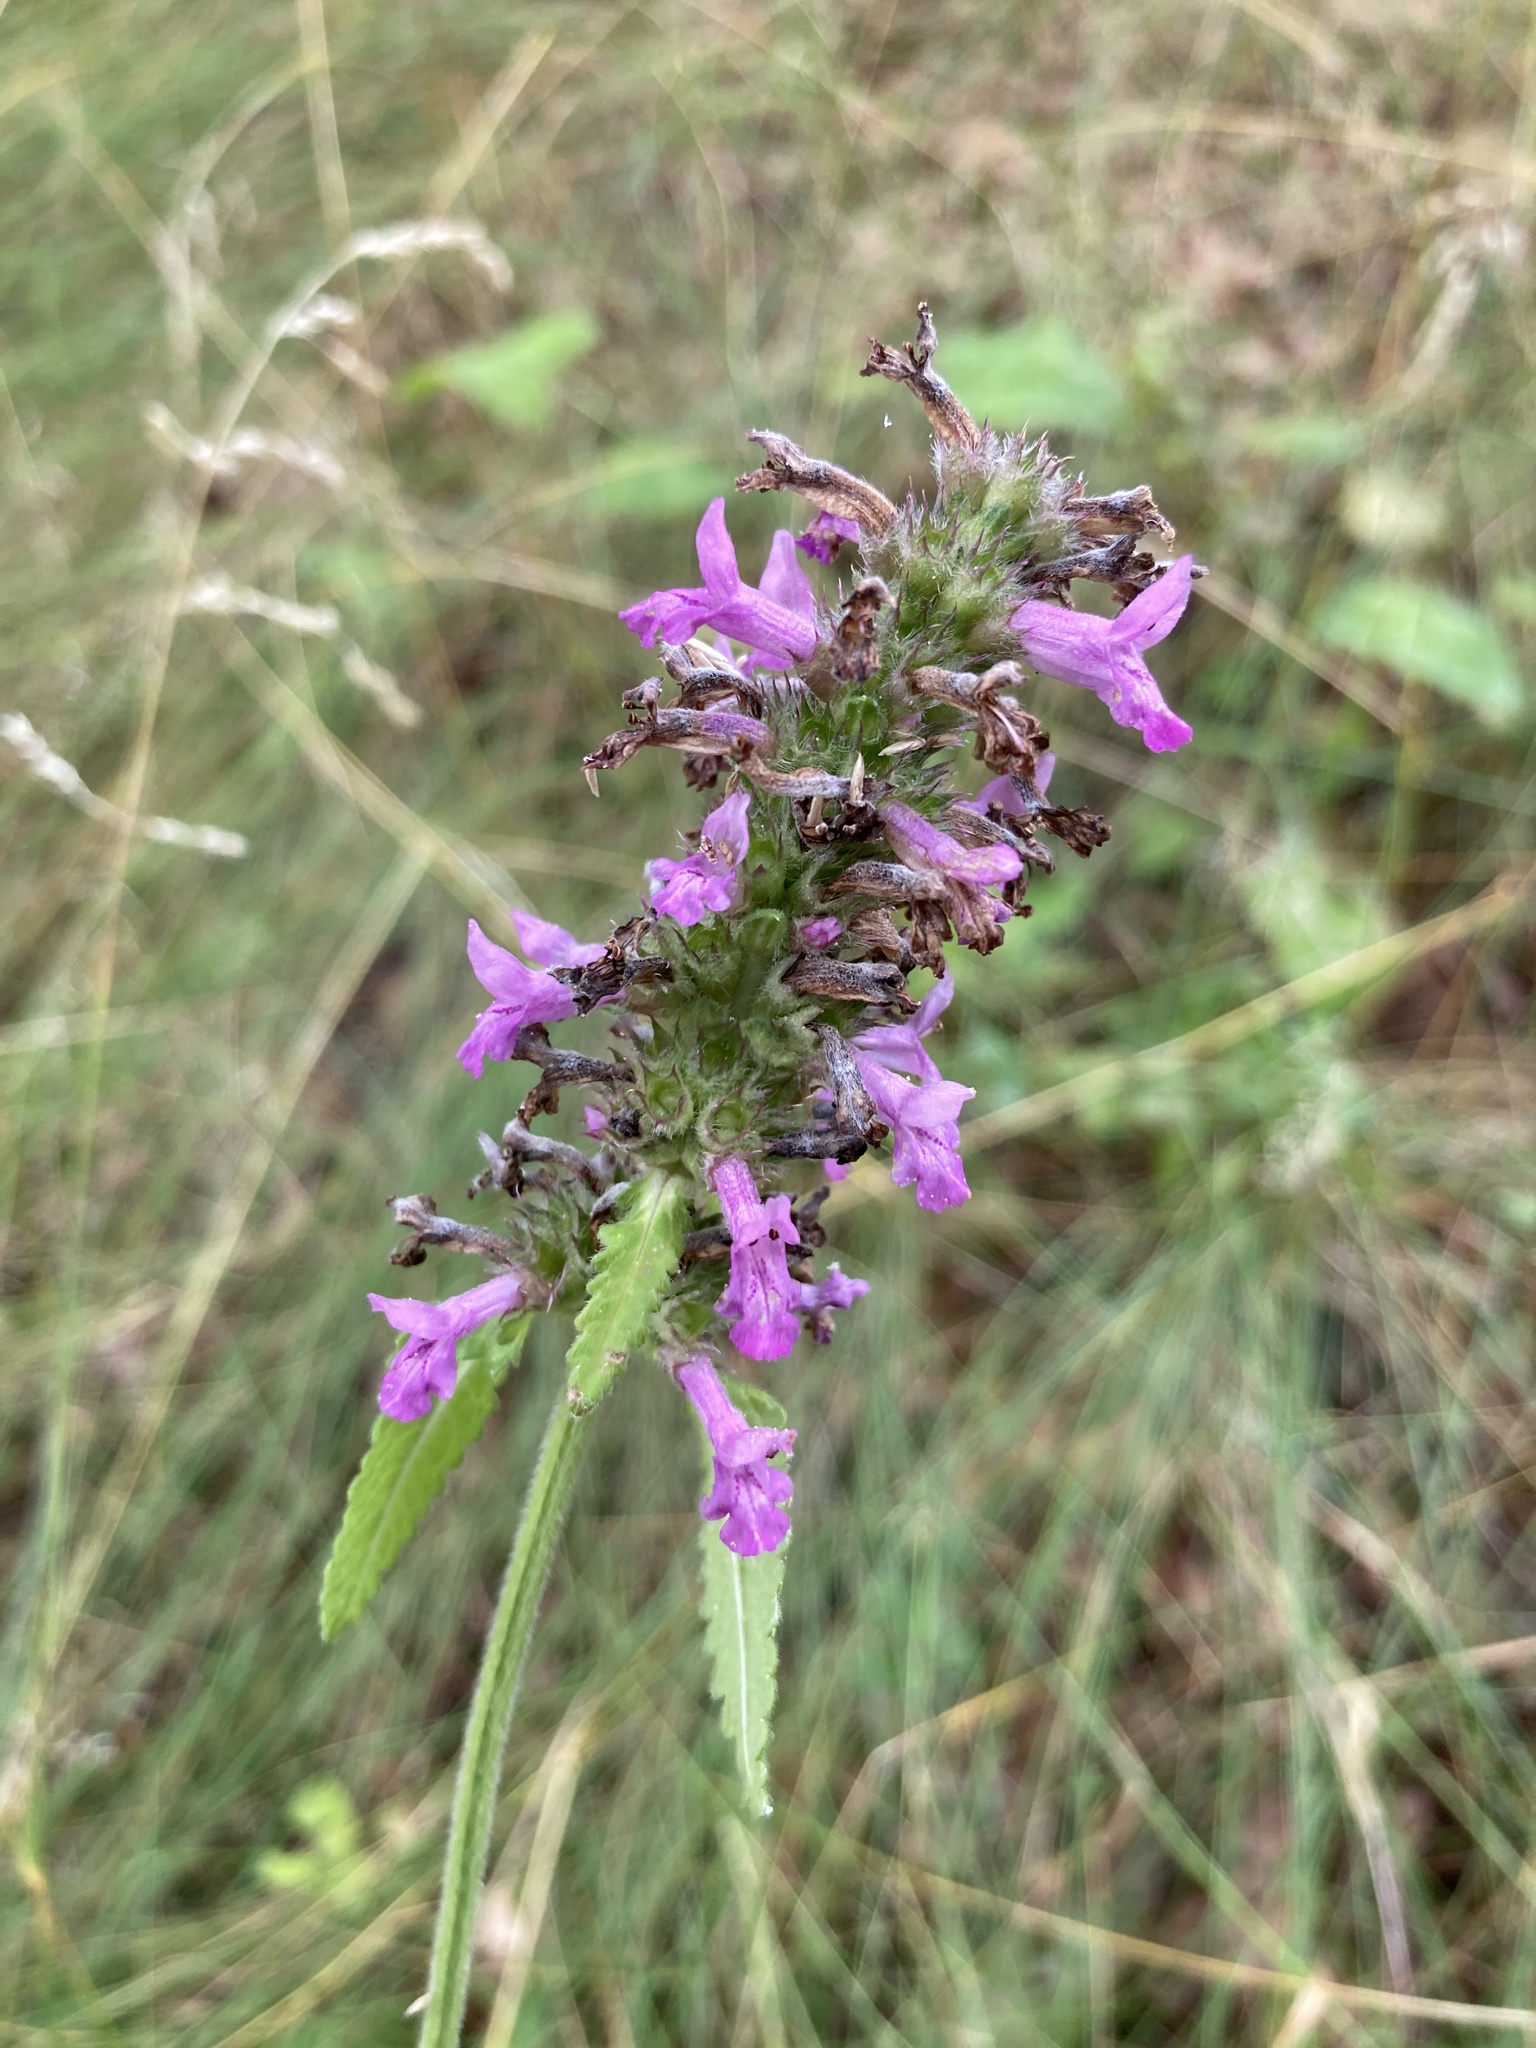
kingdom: Plantae
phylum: Tracheophyta
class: Magnoliopsida
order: Lamiales
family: Lamiaceae
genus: Betonica
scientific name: Betonica officinalis
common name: Bishop's-wort
